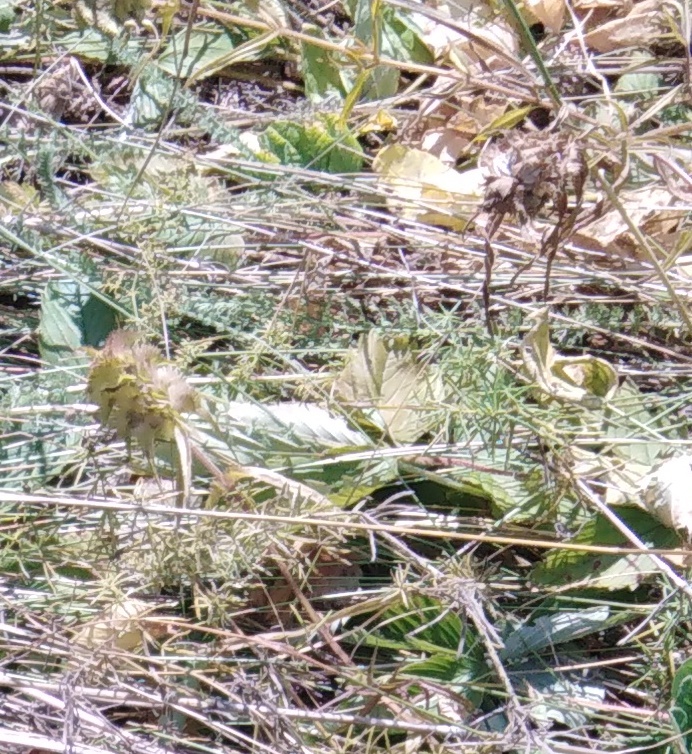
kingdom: Plantae
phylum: Tracheophyta
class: Magnoliopsida
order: Lamiales
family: Orobanchaceae
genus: Melampyrum
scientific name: Melampyrum cristatum
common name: Crested cow-wheat
